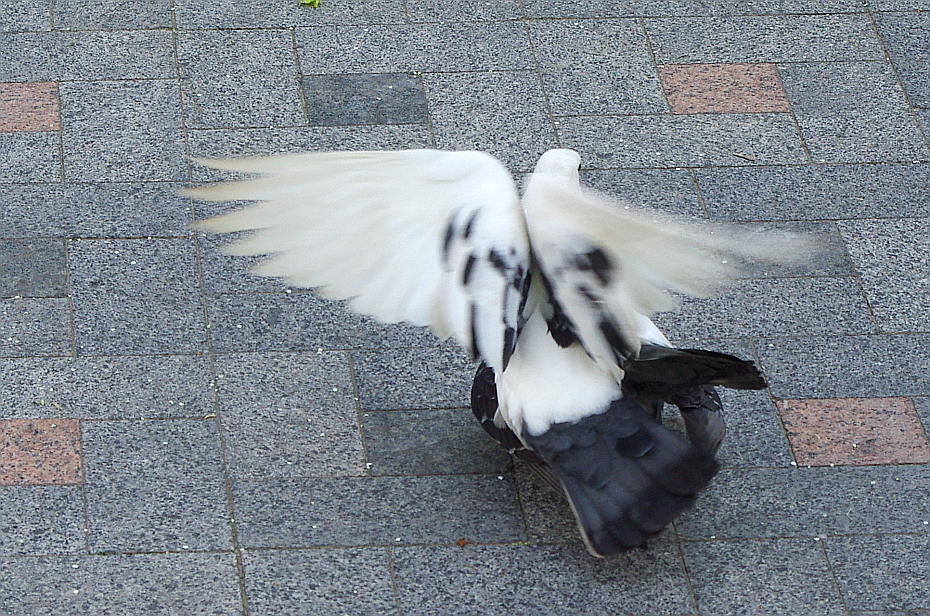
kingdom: Animalia
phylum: Chordata
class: Aves
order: Columbiformes
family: Columbidae
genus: Columba
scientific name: Columba livia
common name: Rock pigeon
